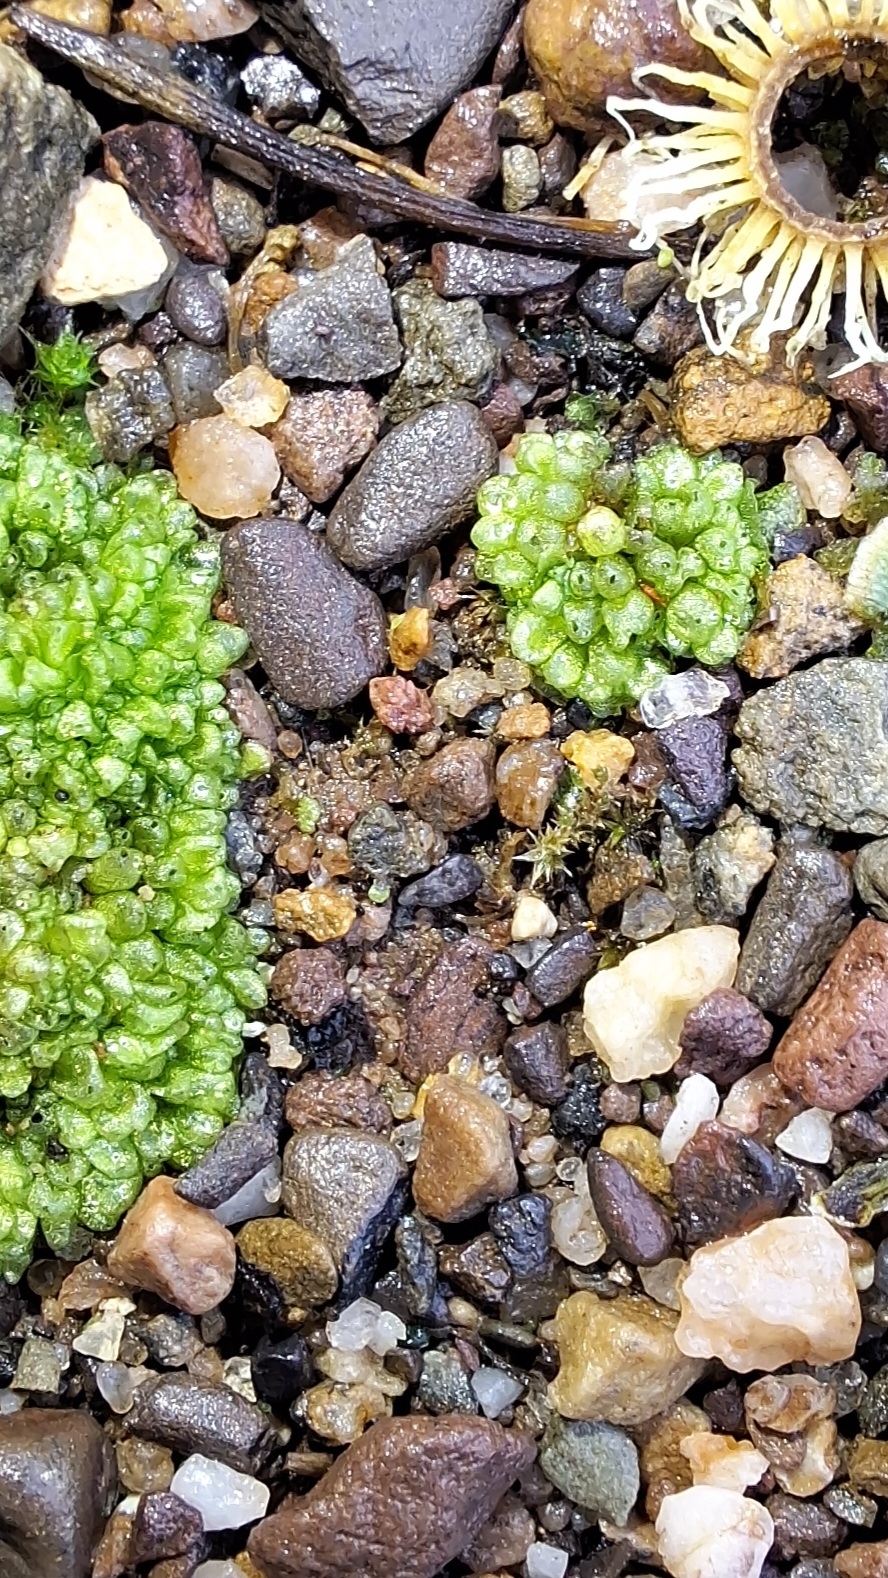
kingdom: Plantae
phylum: Marchantiophyta
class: Marchantiopsida
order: Sphaerocarpales
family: Sphaerocarpaceae
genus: Sphaerocarpos
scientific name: Sphaerocarpos texanus
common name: Texas balloonwort
